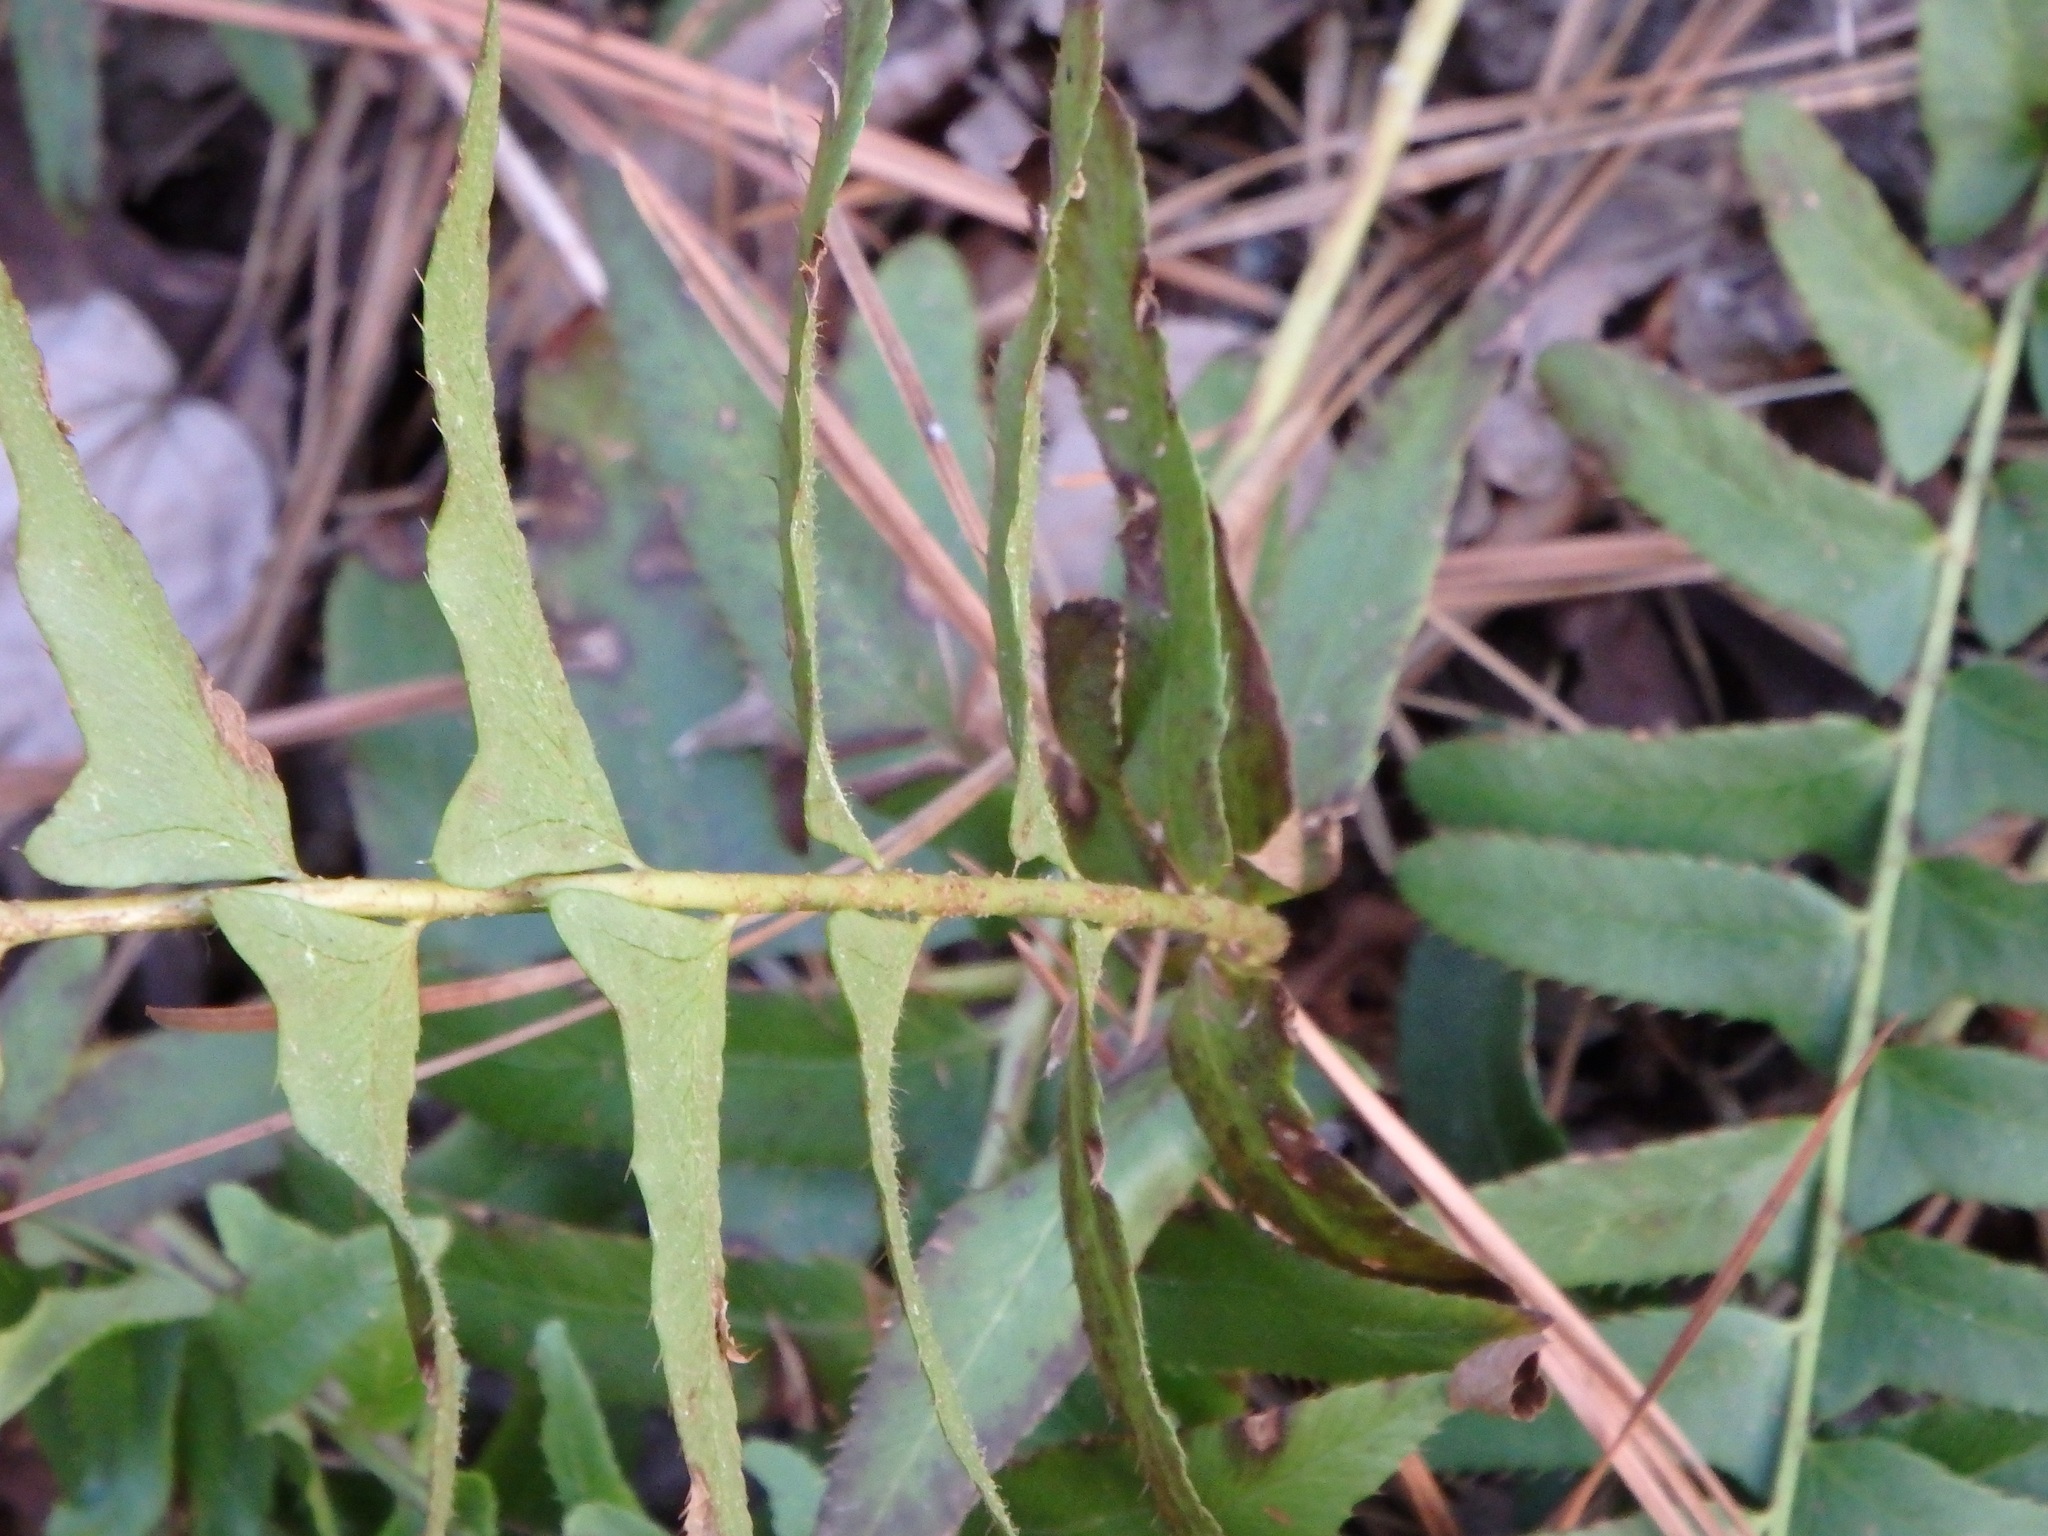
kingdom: Plantae
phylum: Tracheophyta
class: Polypodiopsida
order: Polypodiales
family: Dryopteridaceae
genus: Polystichum
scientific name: Polystichum acrostichoides
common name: Christmas fern
